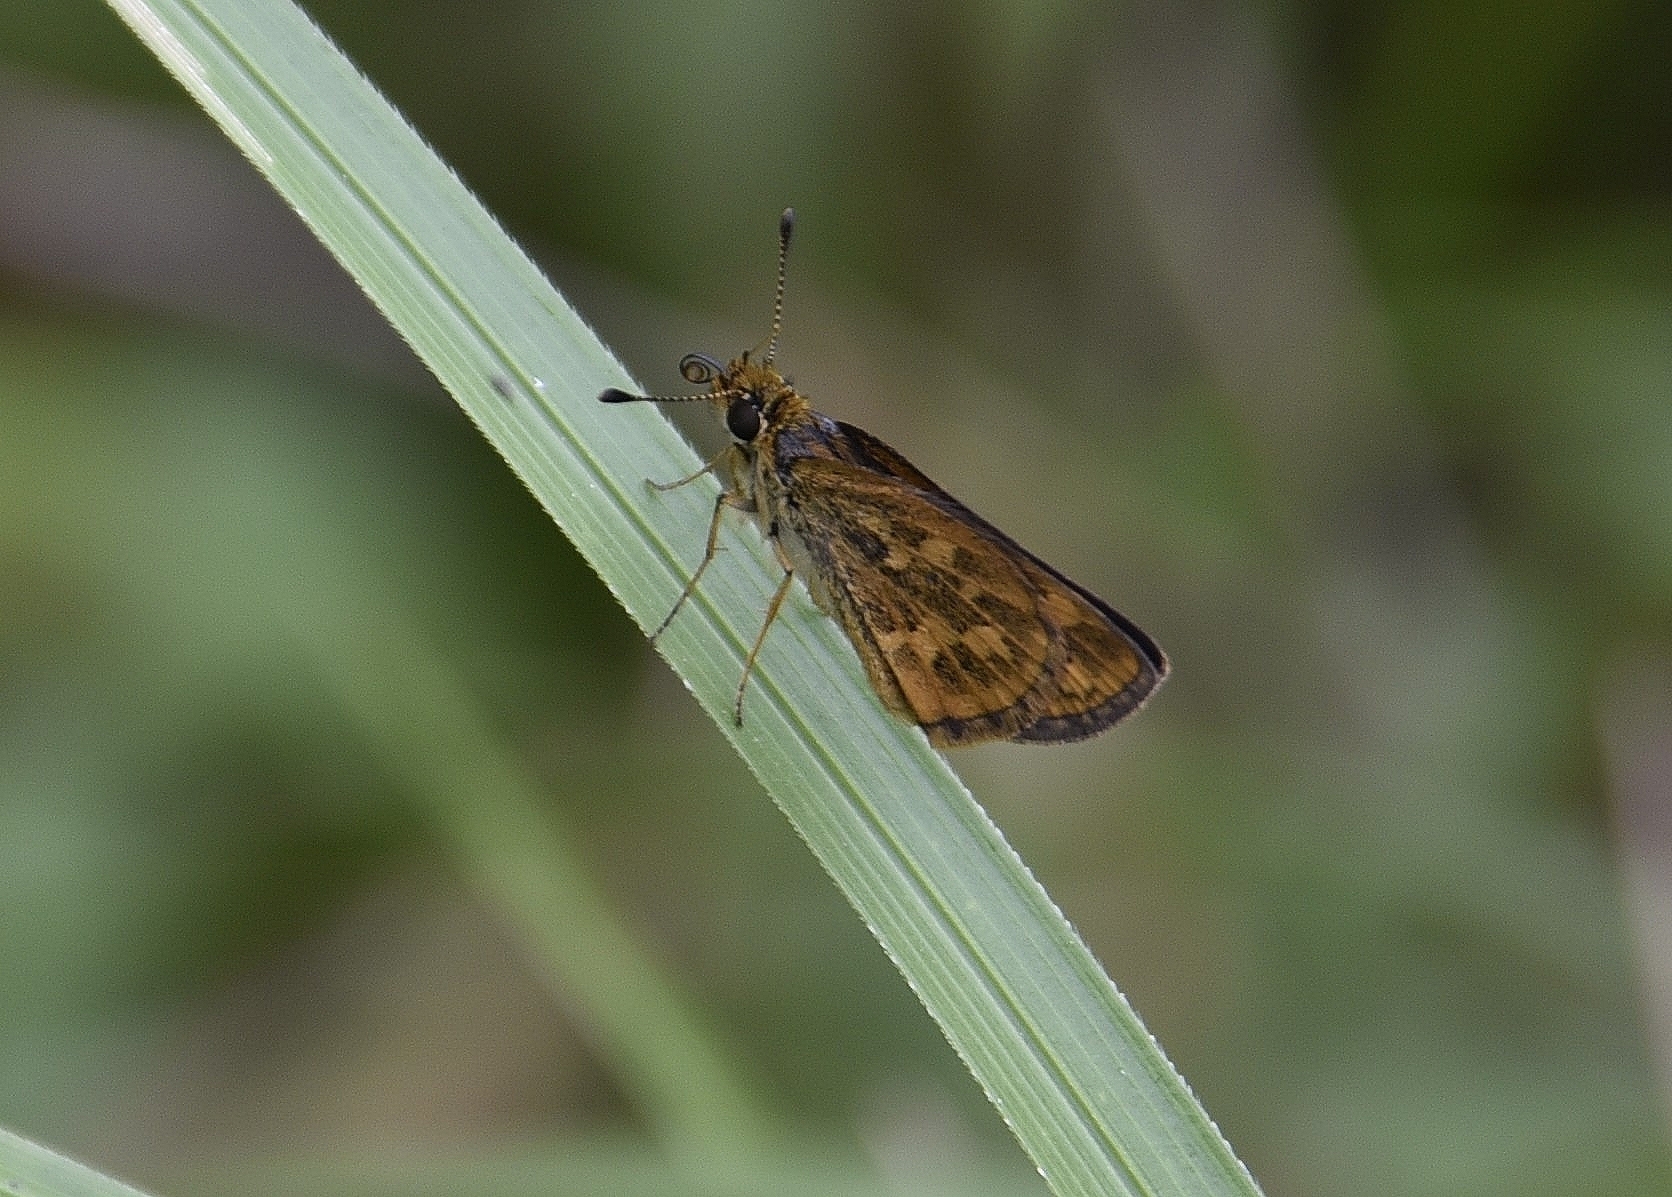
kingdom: Animalia
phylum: Arthropoda
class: Insecta
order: Lepidoptera
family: Hesperiidae
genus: Taractrocera
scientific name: Taractrocera ceramas
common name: Tamil grass dart
